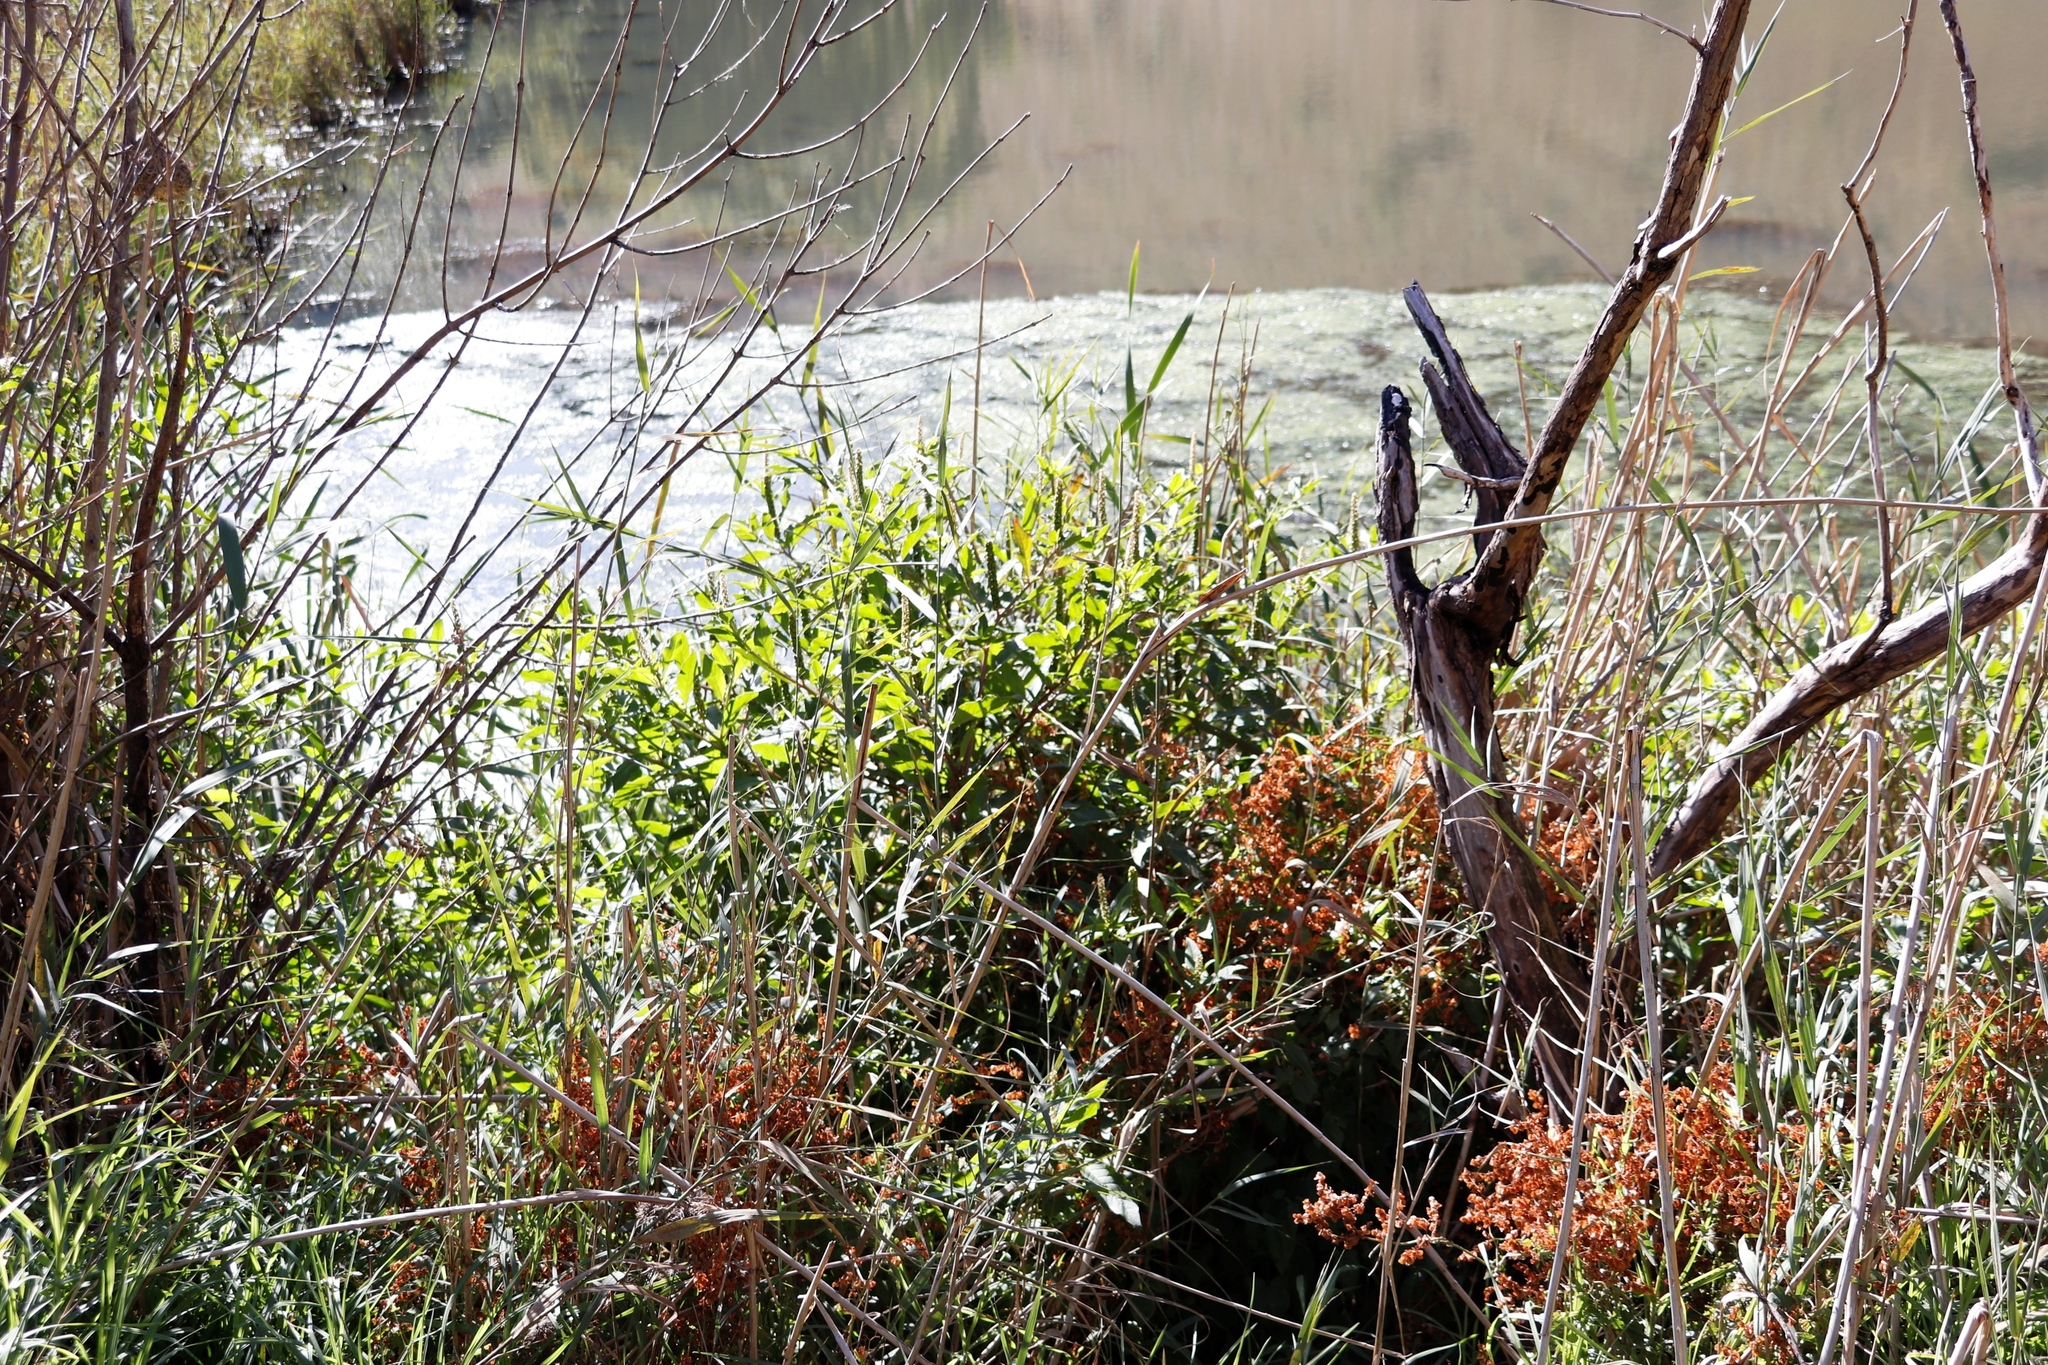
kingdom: Plantae
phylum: Tracheophyta
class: Magnoliopsida
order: Caryophyllales
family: Phytolaccaceae
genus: Phytolacca
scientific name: Phytolacca icosandra
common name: Button pokeweed
